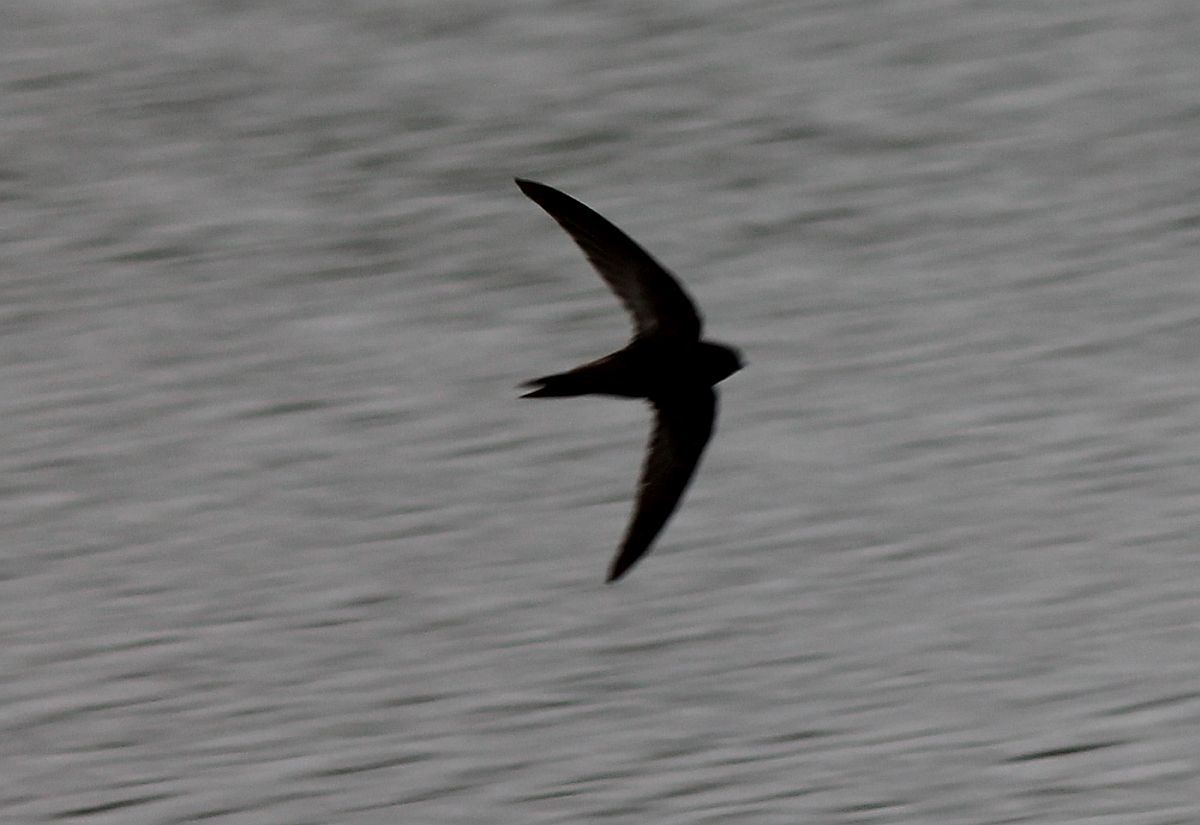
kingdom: Animalia
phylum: Chordata
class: Aves
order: Apodiformes
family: Apodidae
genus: Apus
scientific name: Apus apus
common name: Common swift
